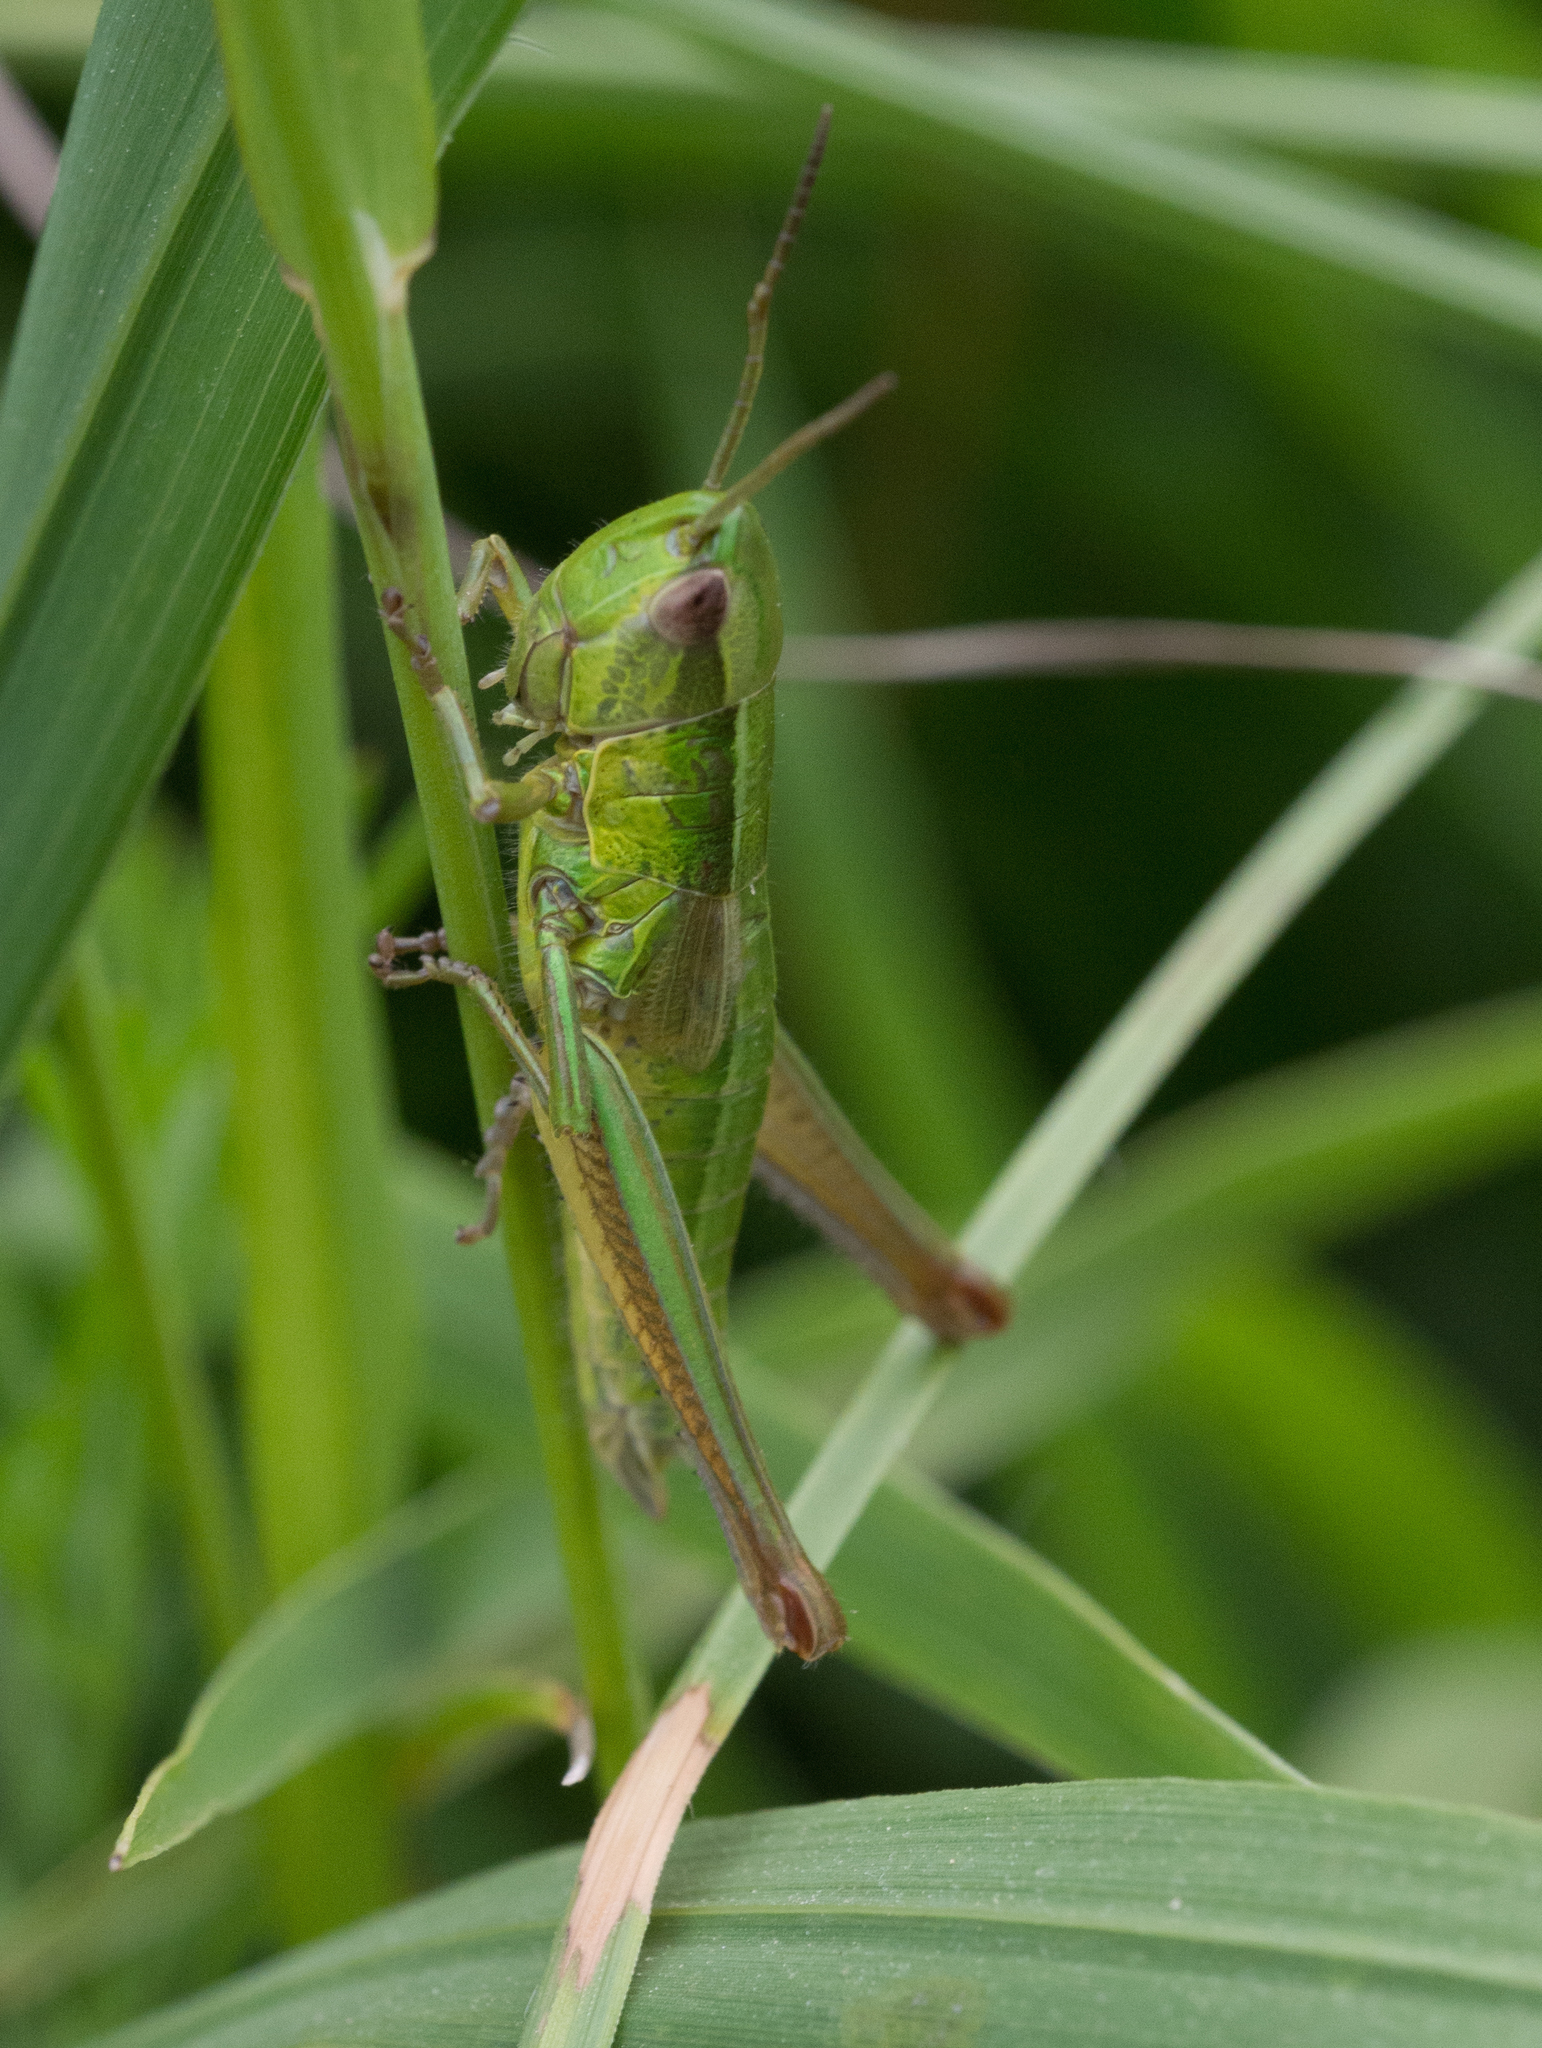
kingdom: Animalia
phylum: Arthropoda
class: Insecta
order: Orthoptera
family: Acrididae
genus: Euthystira
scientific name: Euthystira brachyptera
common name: Small gold grasshopper
